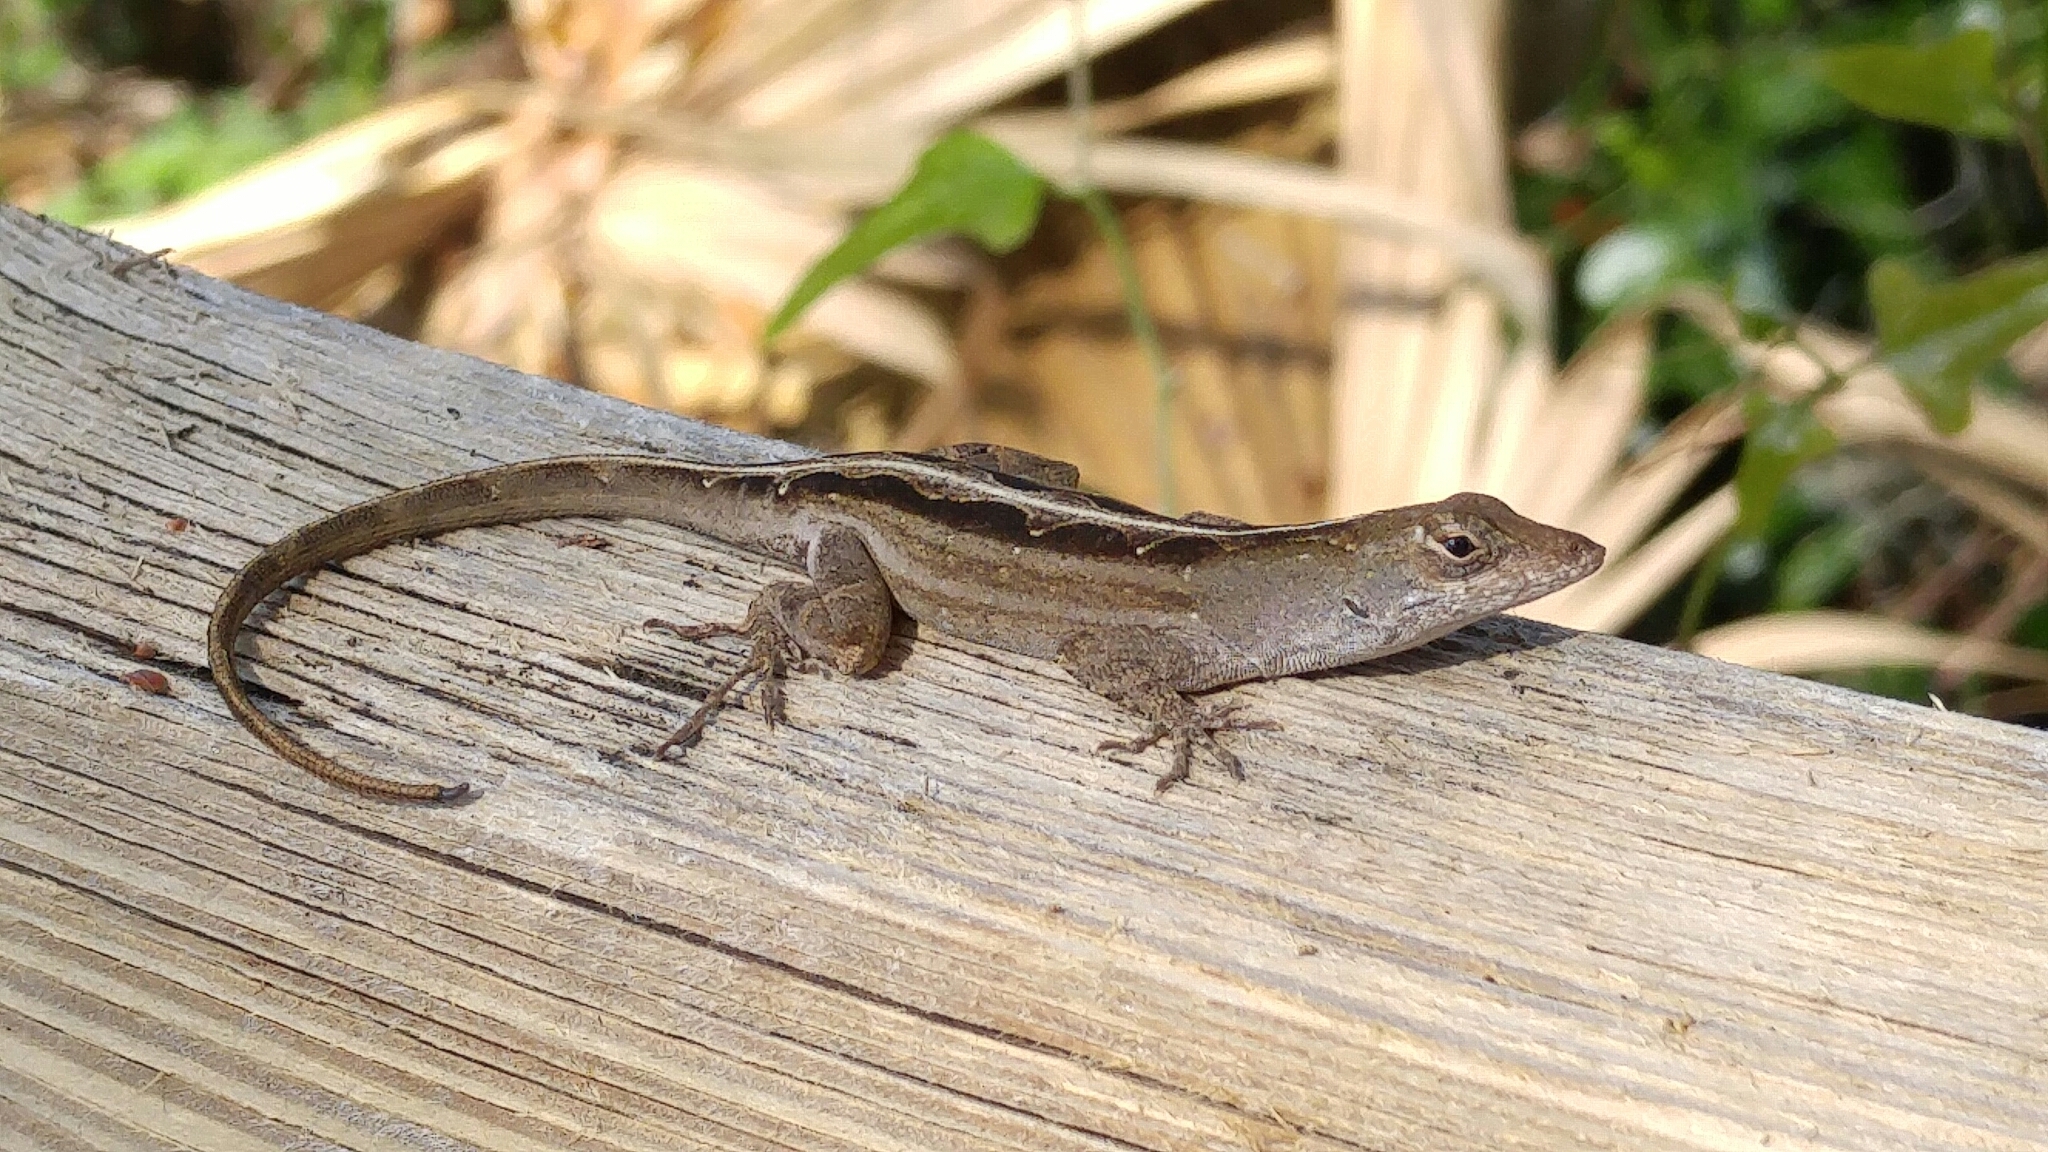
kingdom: Animalia
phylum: Chordata
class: Squamata
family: Dactyloidae
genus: Anolis
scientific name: Anolis sagrei
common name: Brown anole
